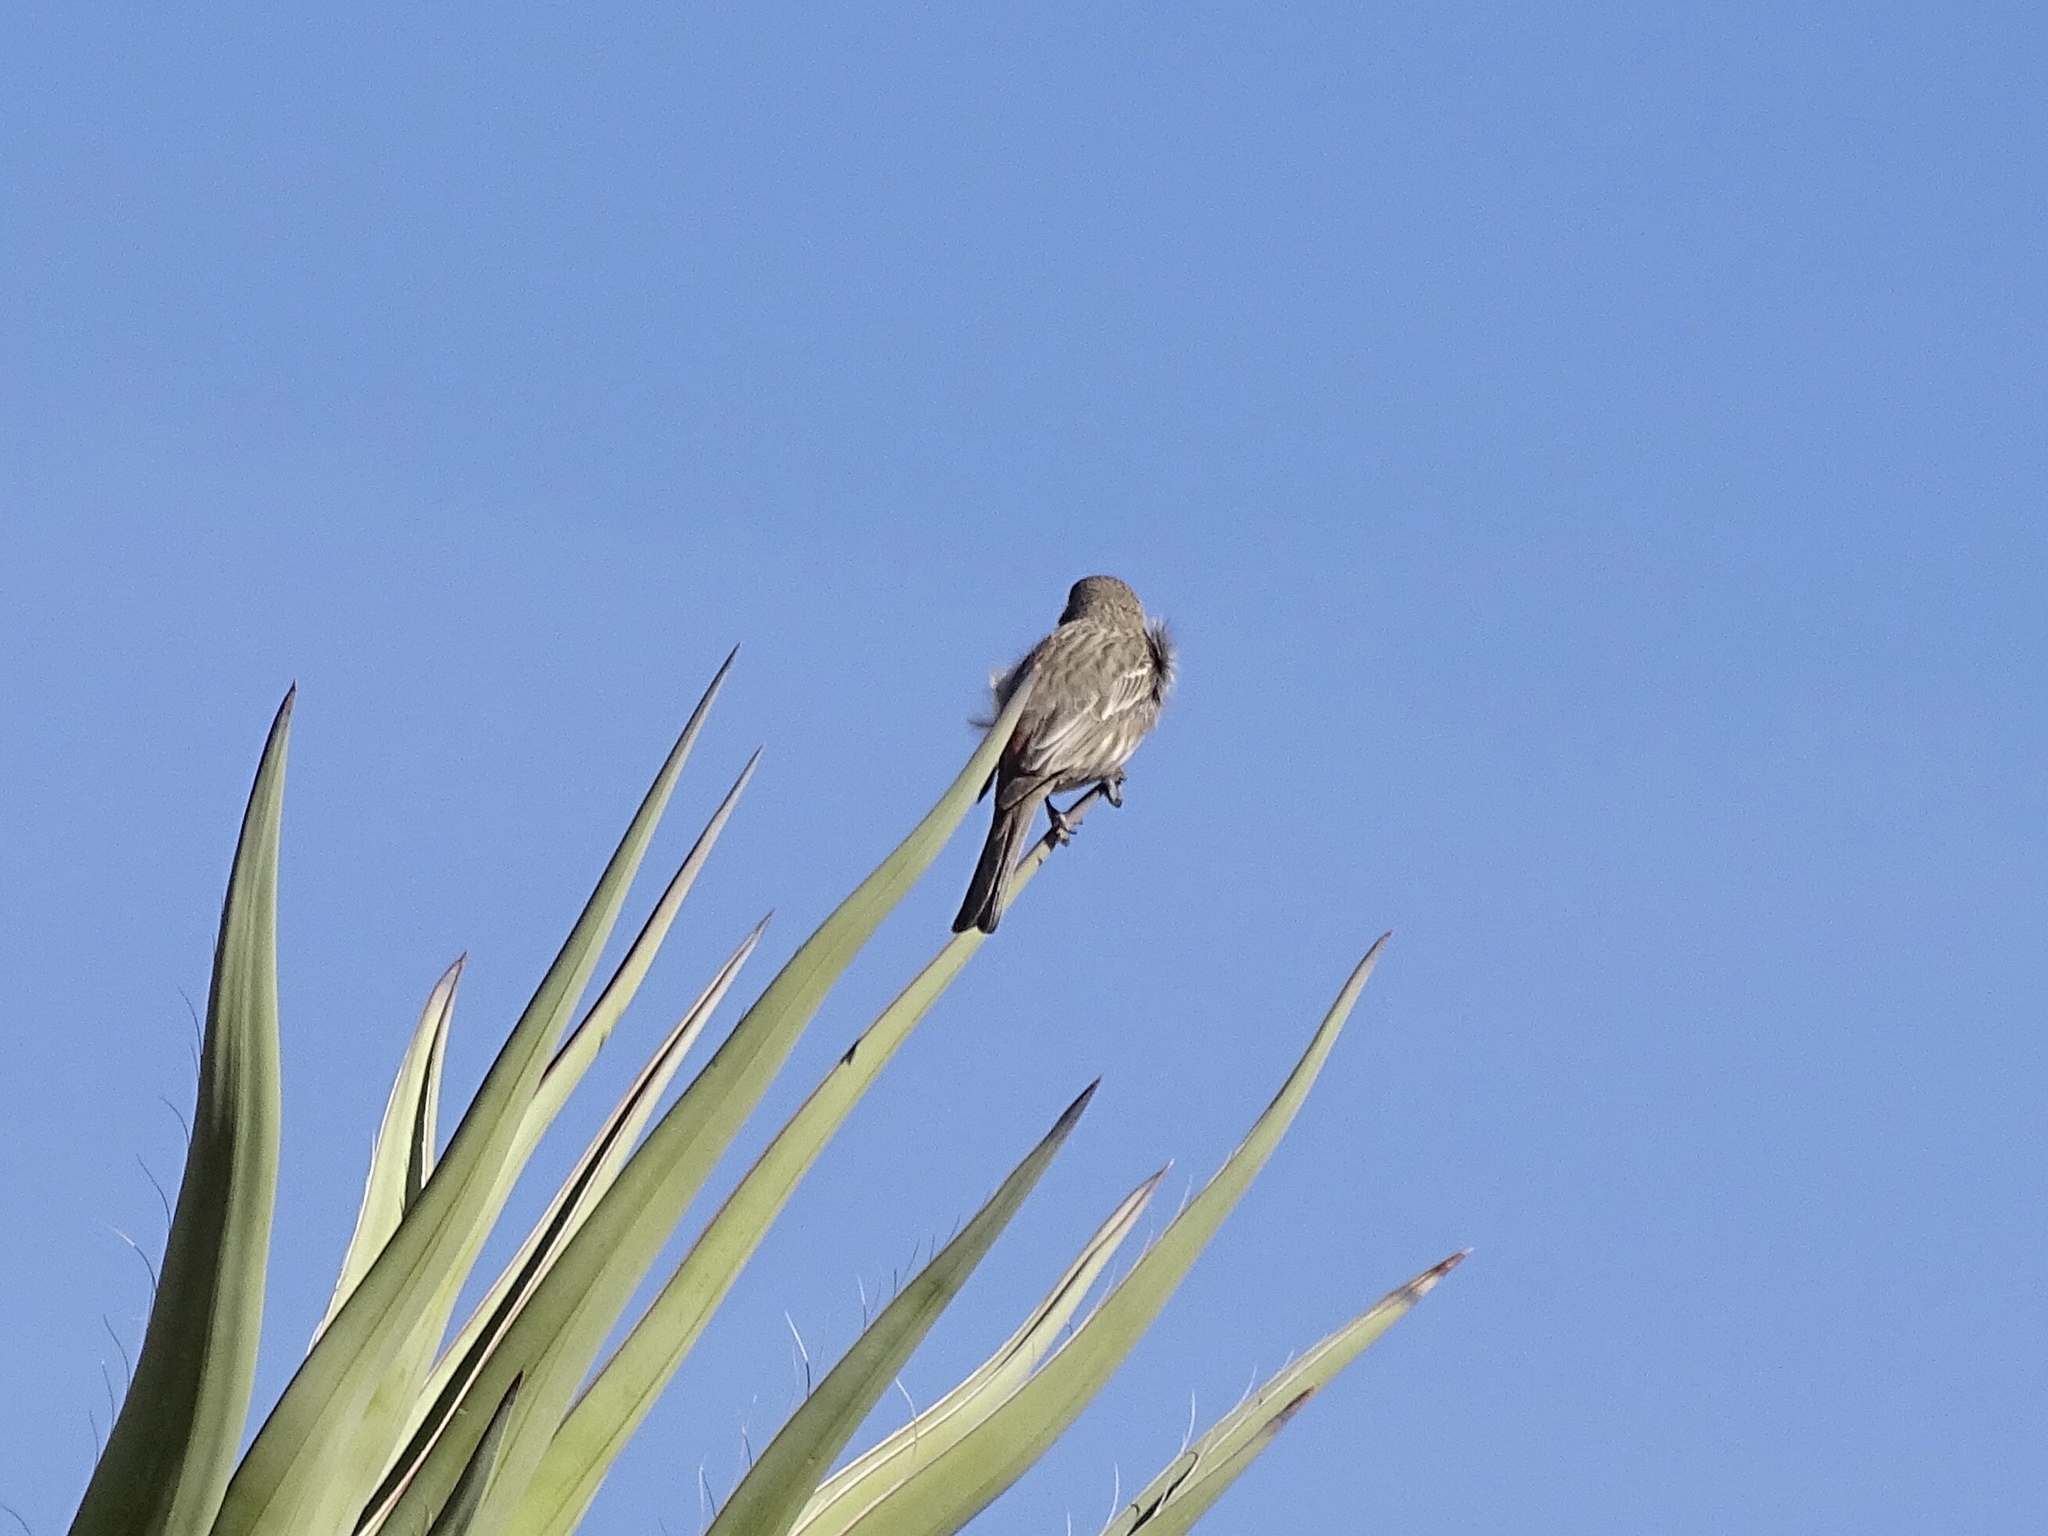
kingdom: Animalia
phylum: Chordata
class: Aves
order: Passeriformes
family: Fringillidae
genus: Haemorhous
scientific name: Haemorhous mexicanus
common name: House finch
